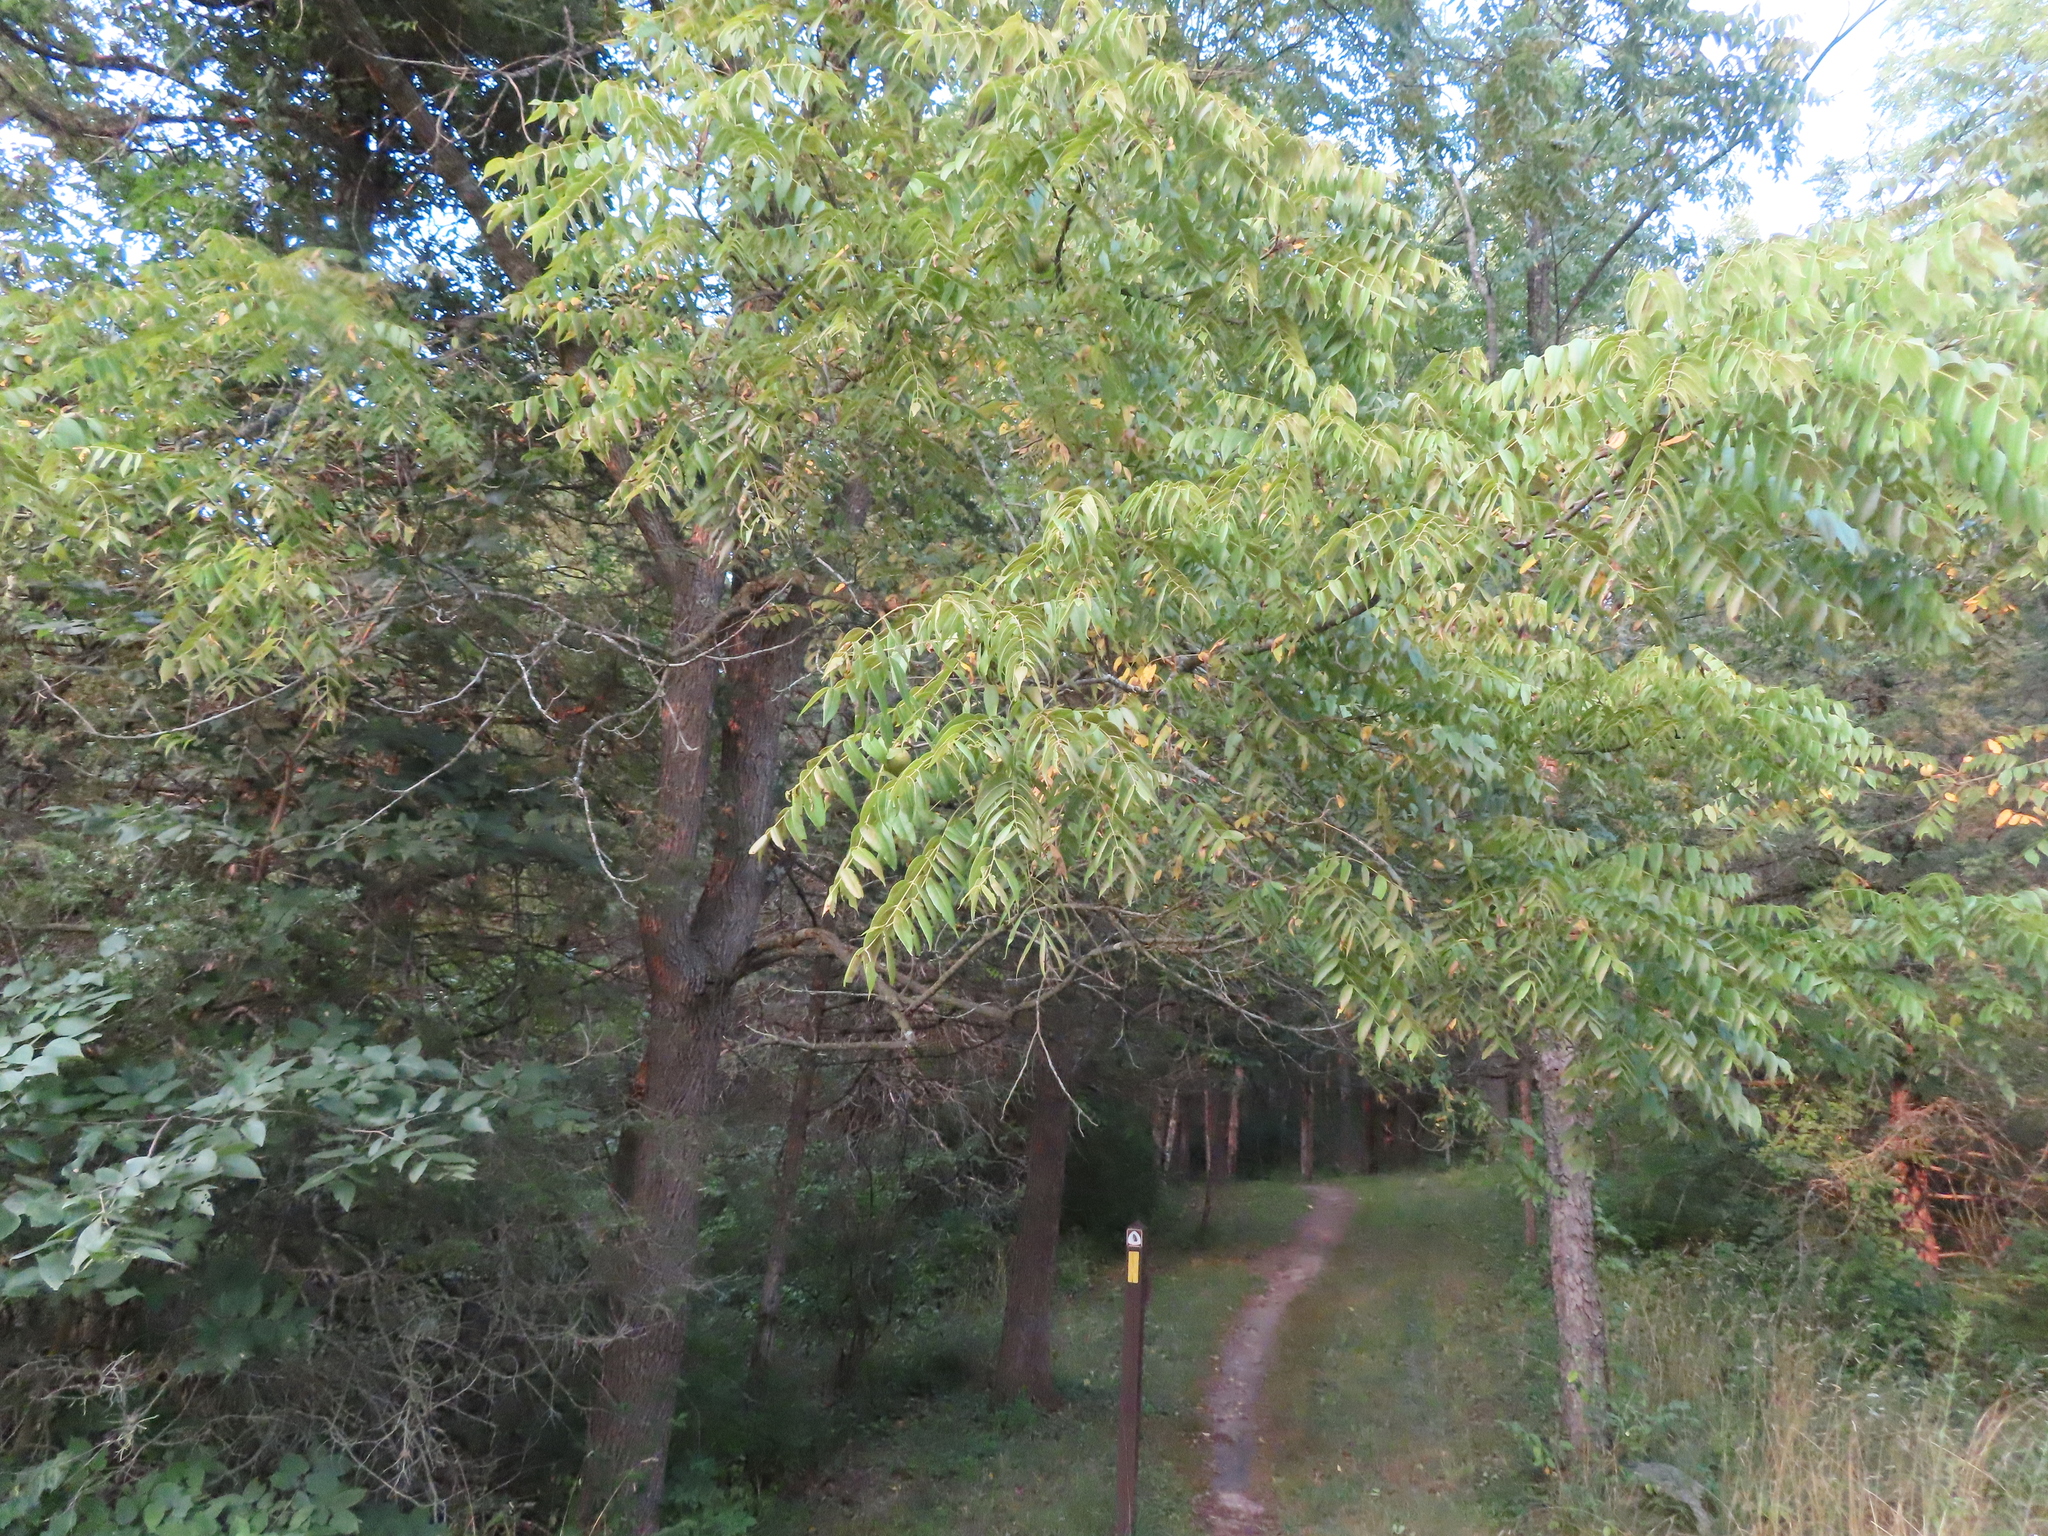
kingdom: Plantae
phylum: Tracheophyta
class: Magnoliopsida
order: Fagales
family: Juglandaceae
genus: Juglans
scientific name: Juglans nigra
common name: Black walnut
